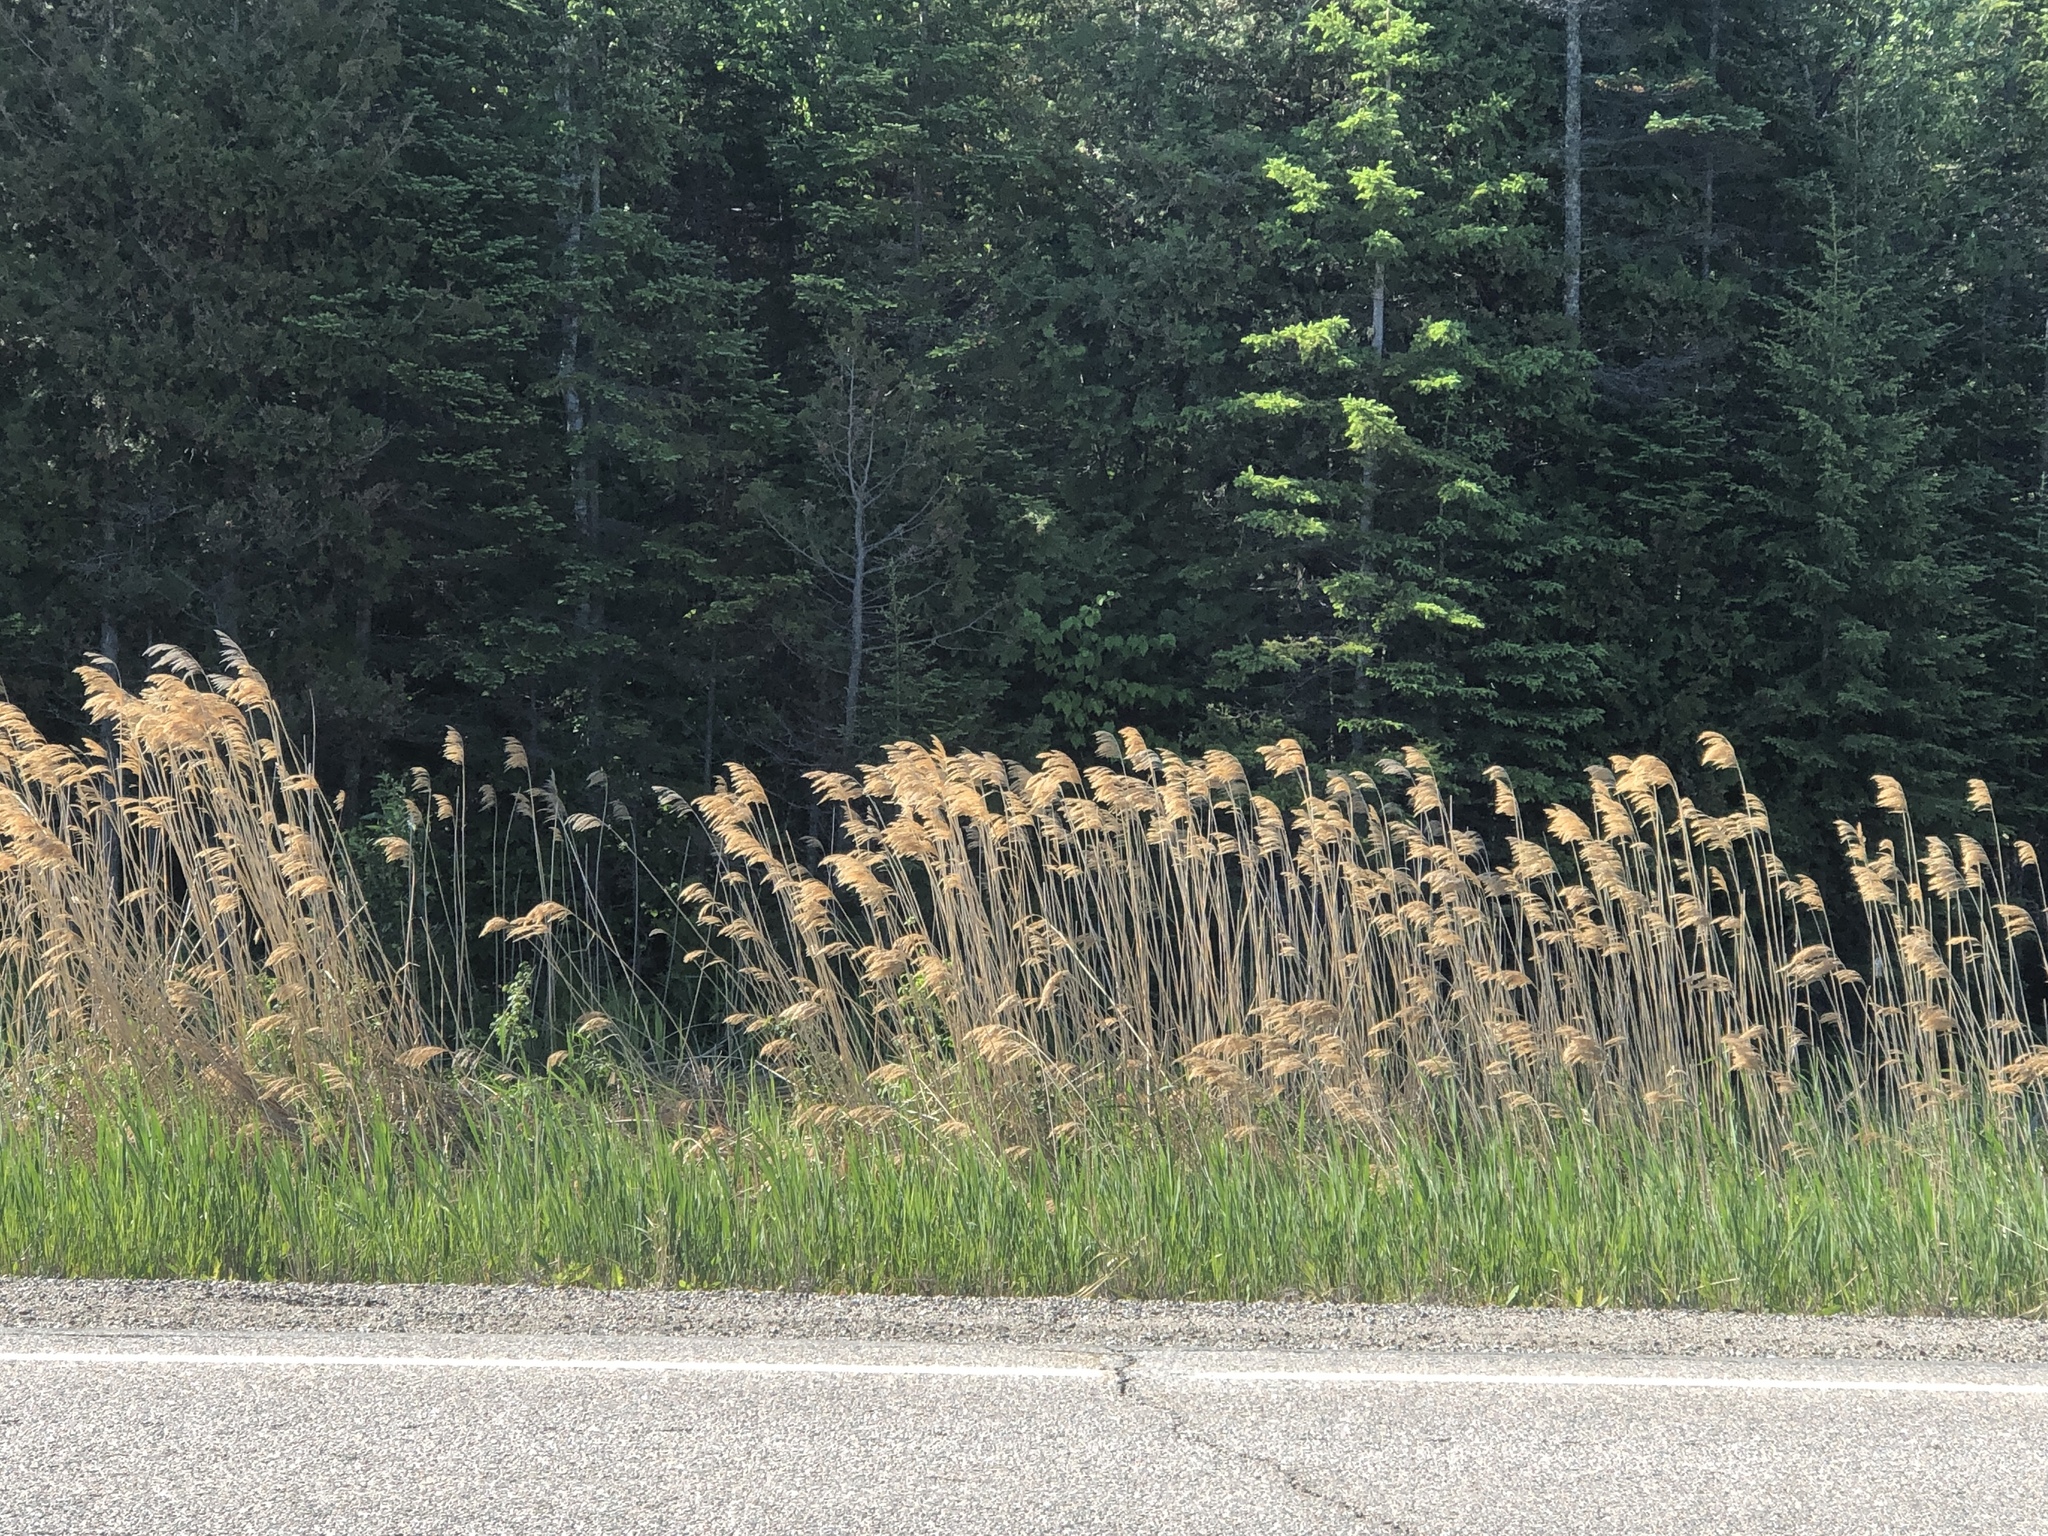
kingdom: Plantae
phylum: Tracheophyta
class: Liliopsida
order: Poales
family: Poaceae
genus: Phragmites
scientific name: Phragmites australis
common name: Common reed
